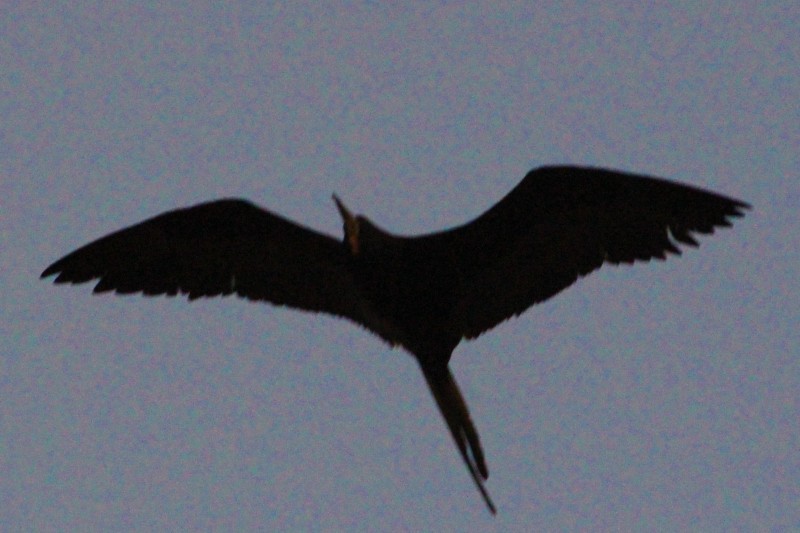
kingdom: Animalia
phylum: Chordata
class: Aves
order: Suliformes
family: Fregatidae
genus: Fregata
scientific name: Fregata magnificens
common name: Magnificent frigatebird
